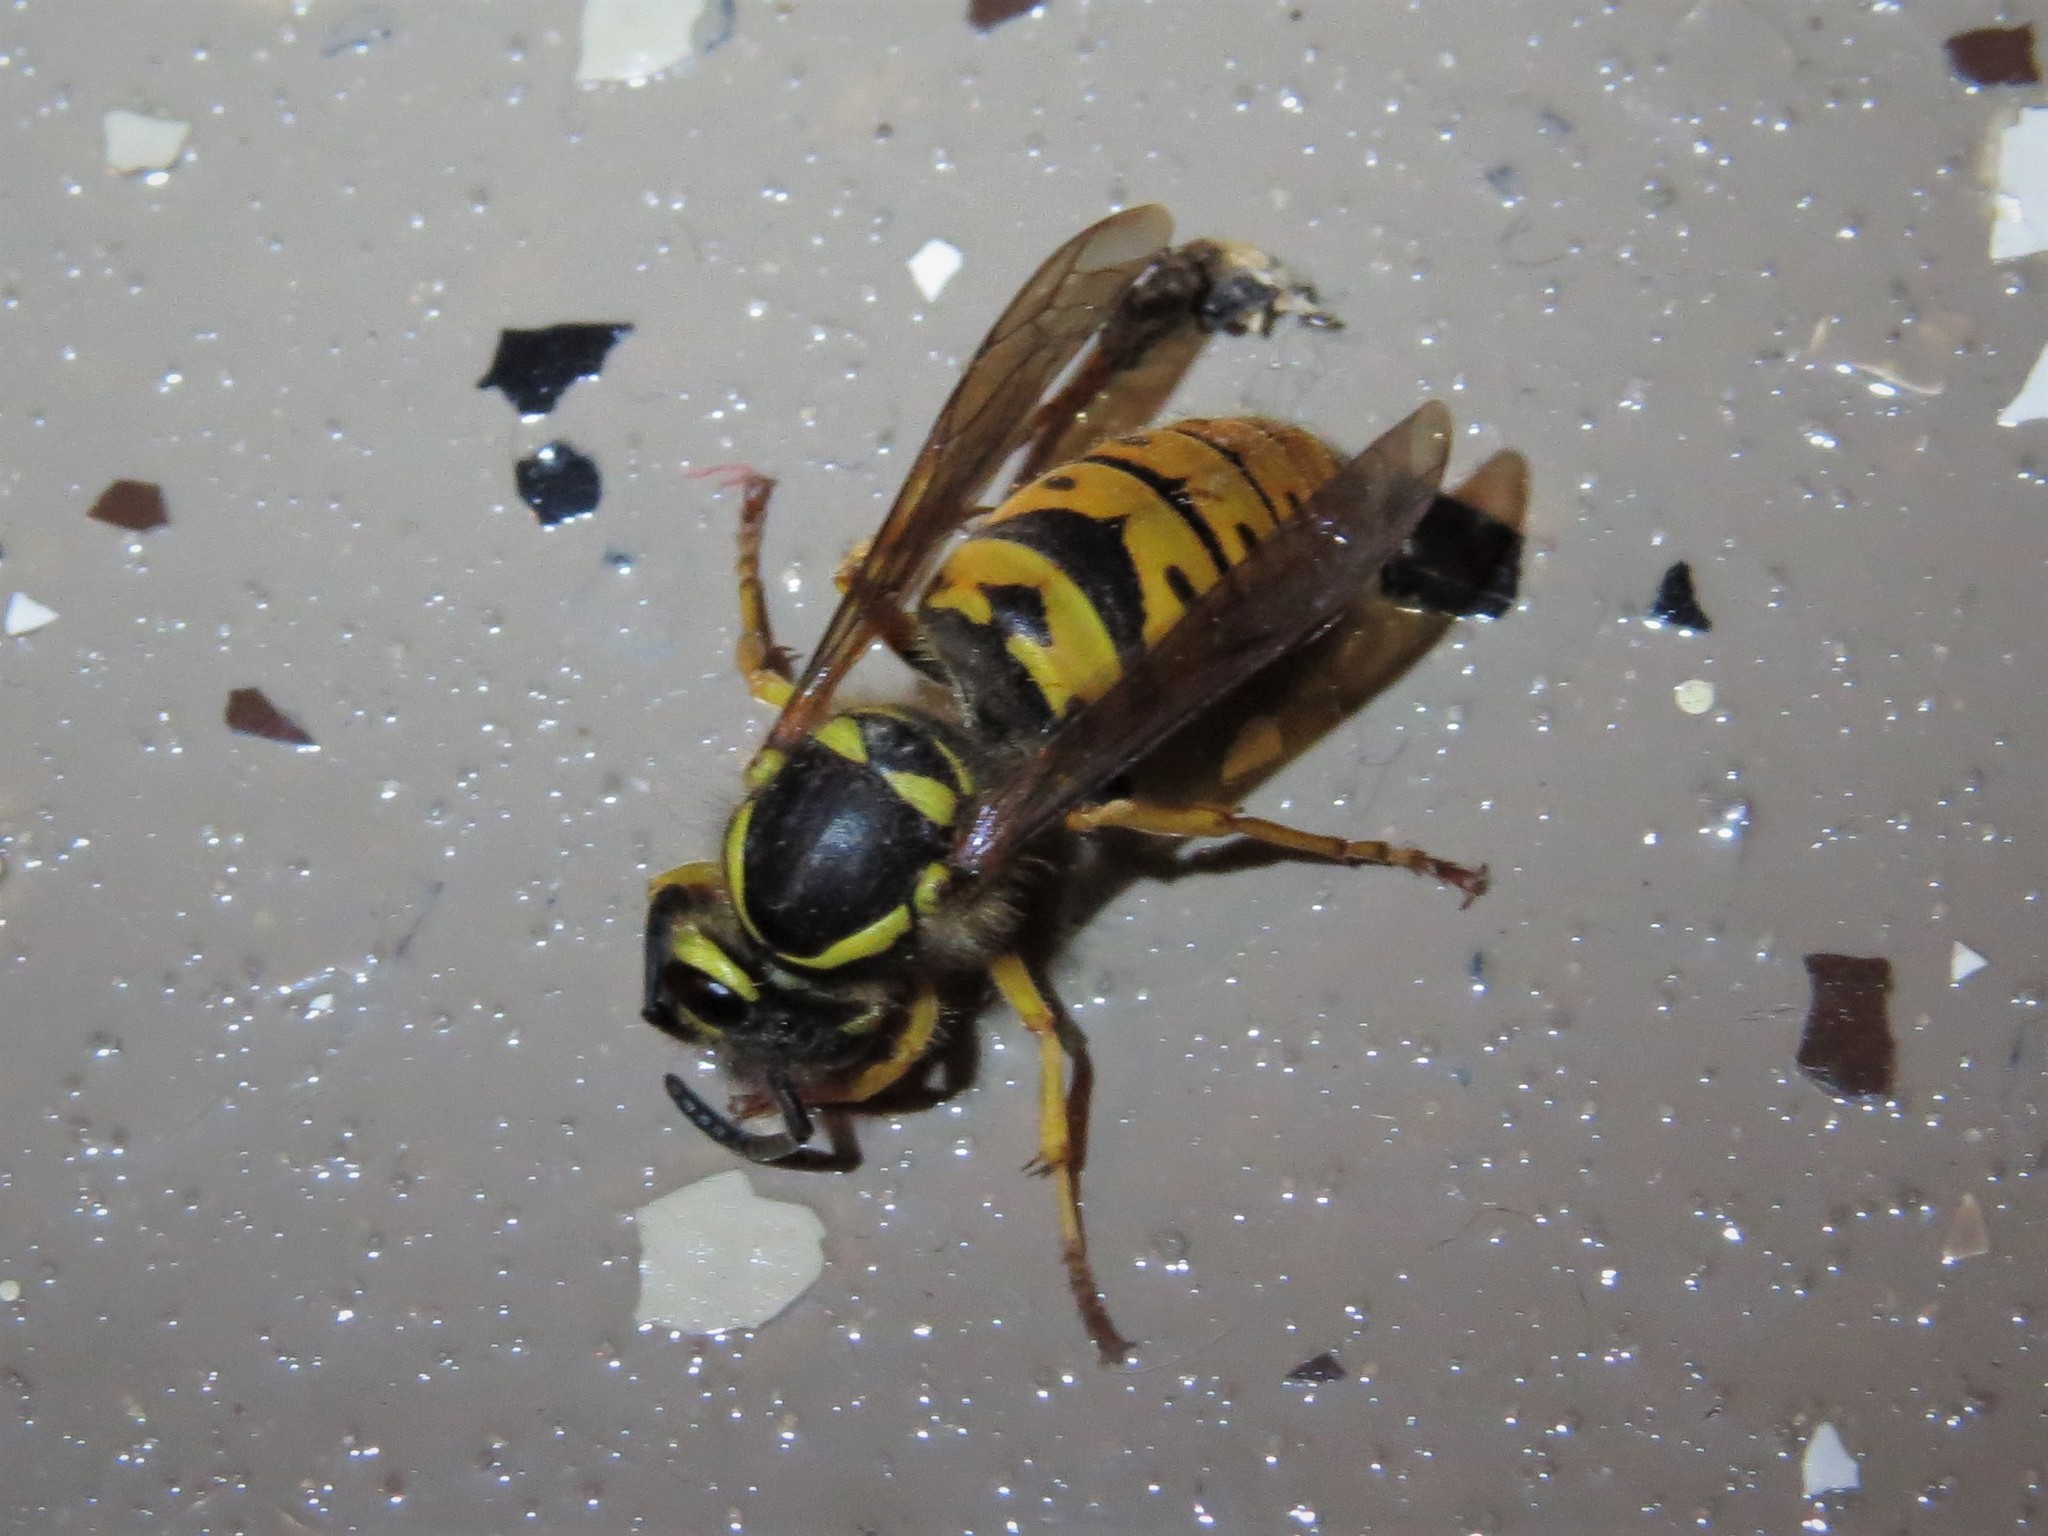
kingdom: Animalia
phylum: Arthropoda
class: Insecta
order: Hymenoptera
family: Vespidae
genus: Vespula
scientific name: Vespula maculifrons
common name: Eastern yellowjacket
